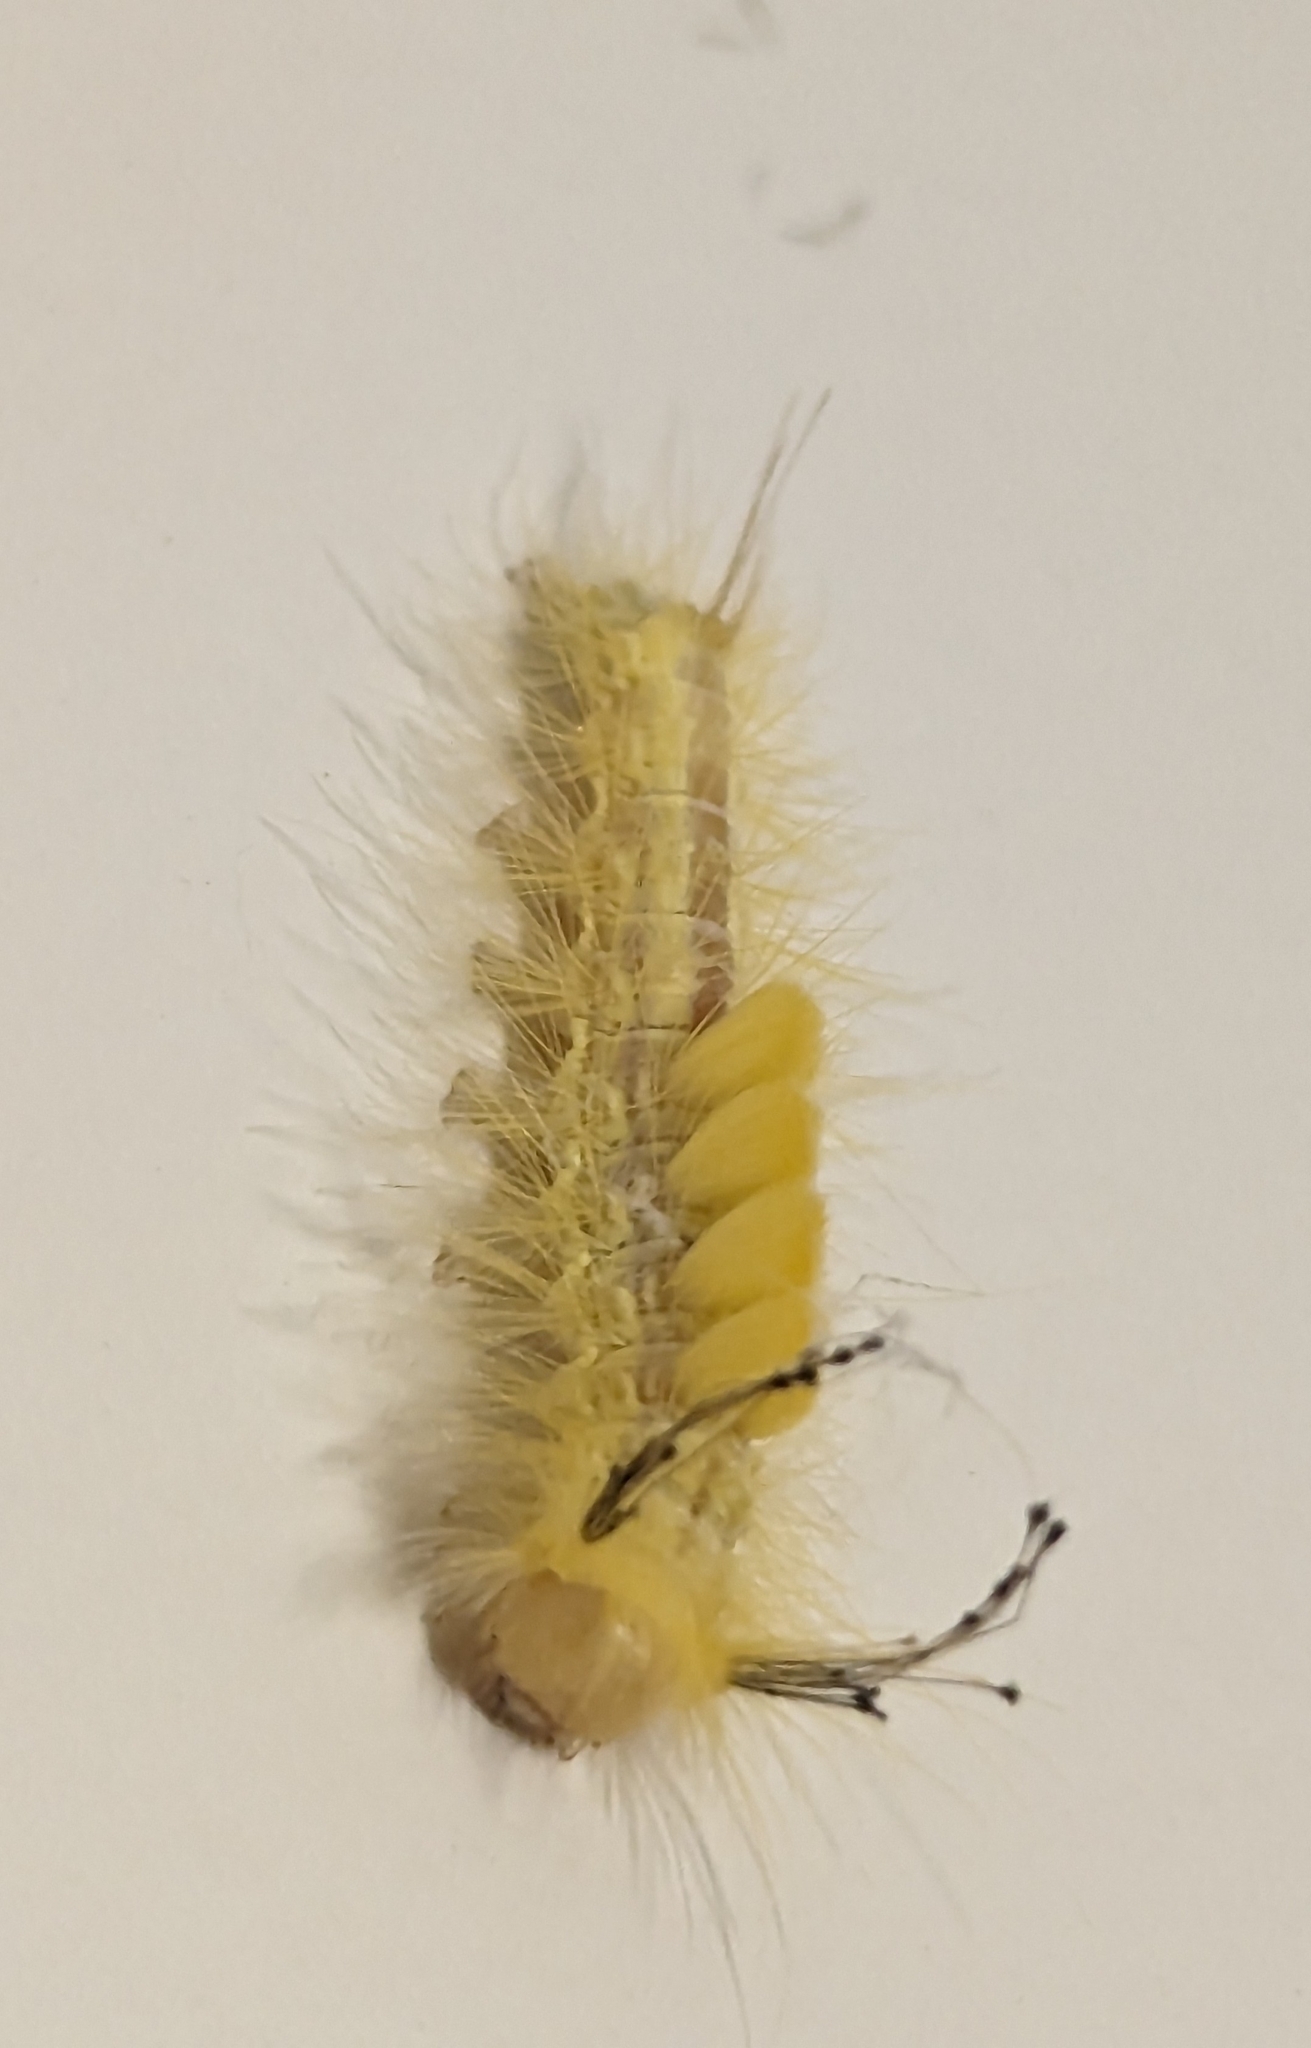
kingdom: Animalia
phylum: Arthropoda
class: Insecta
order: Lepidoptera
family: Erebidae
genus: Orgyia
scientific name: Orgyia definita
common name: Definite tussock moth
